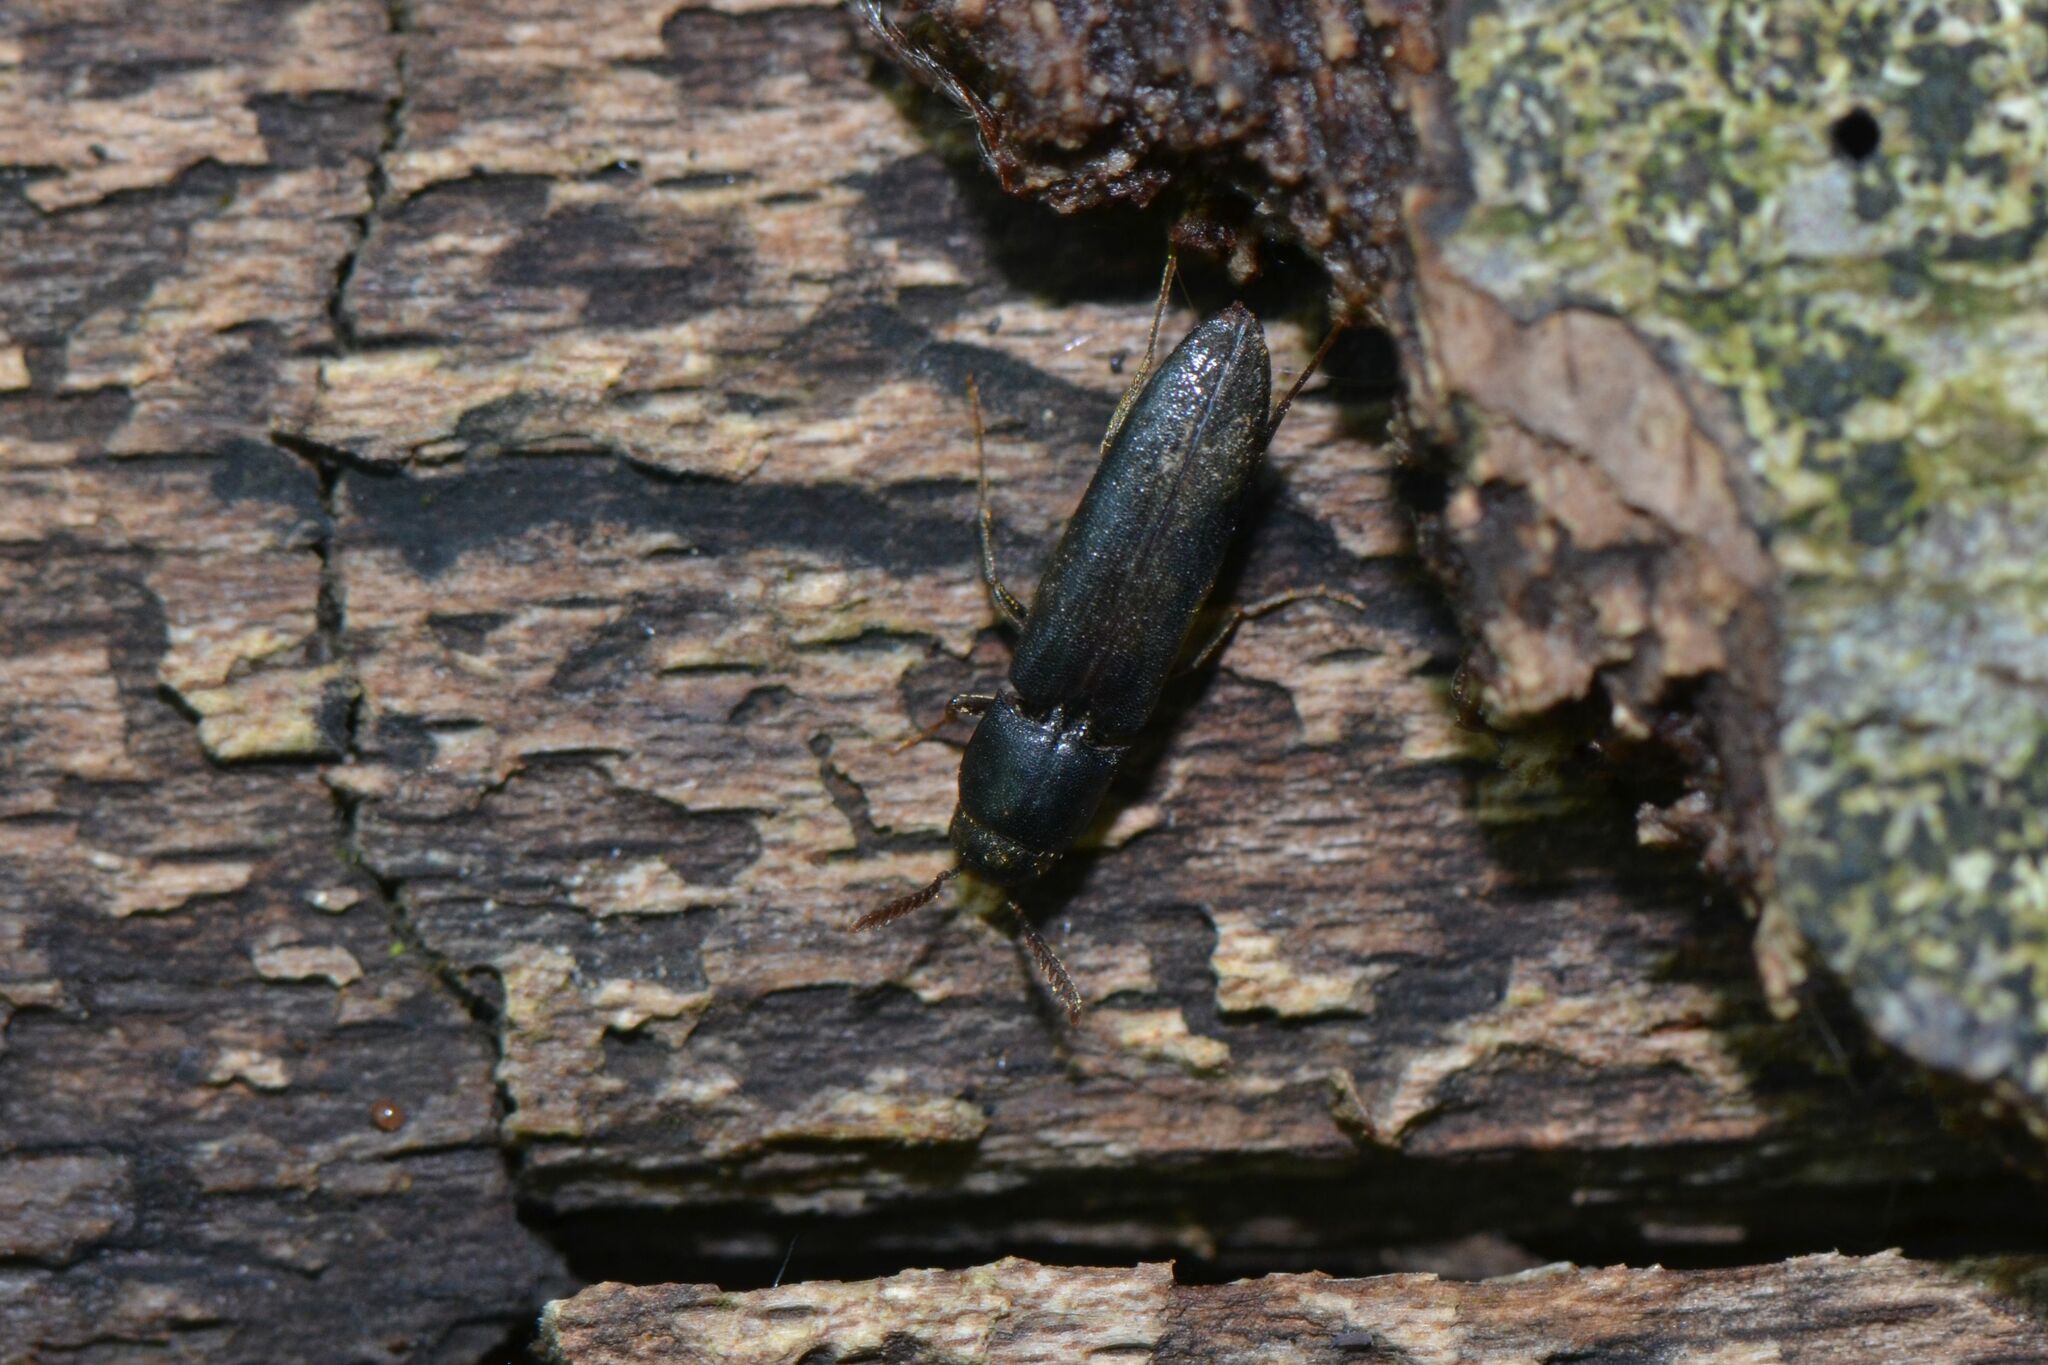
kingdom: Animalia
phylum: Arthropoda
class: Insecta
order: Coleoptera
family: Eucnemidae
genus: Isorhipis
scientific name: Isorhipis melasoides
